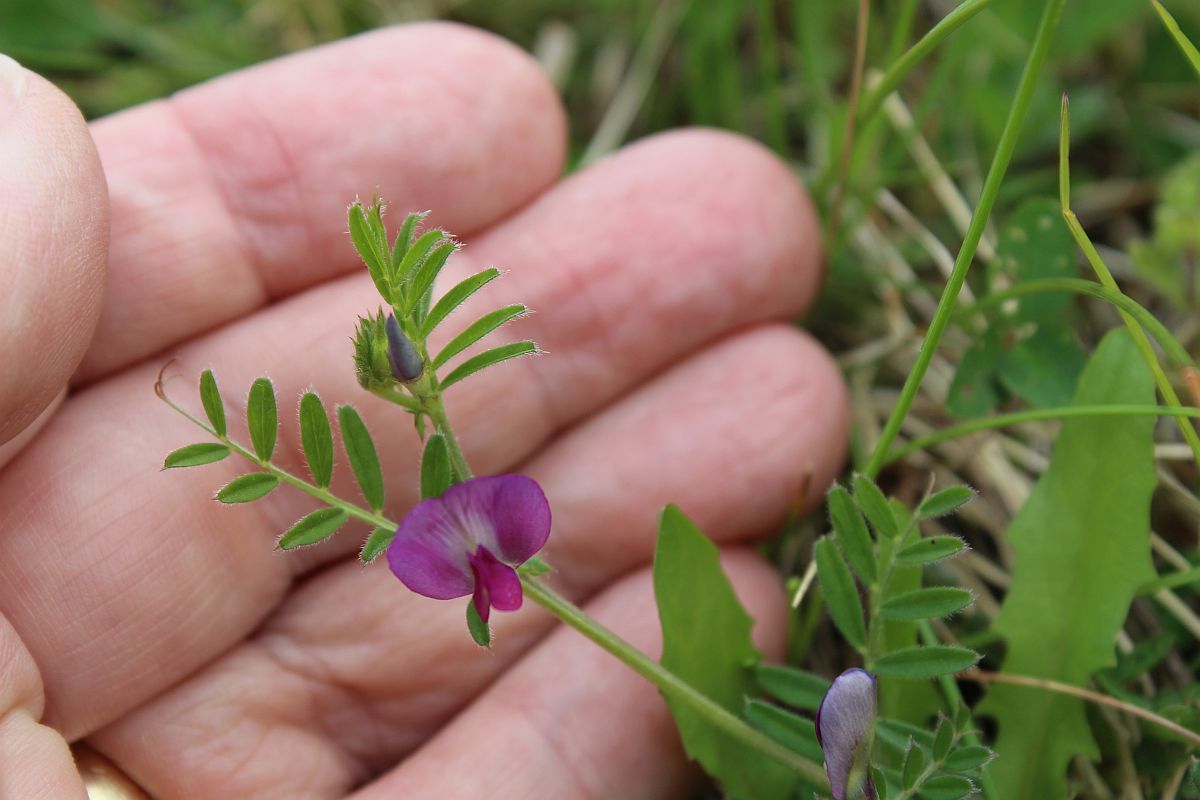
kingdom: Plantae
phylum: Tracheophyta
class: Magnoliopsida
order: Fabales
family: Fabaceae
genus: Vicia
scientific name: Vicia sativa
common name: Garden vetch
